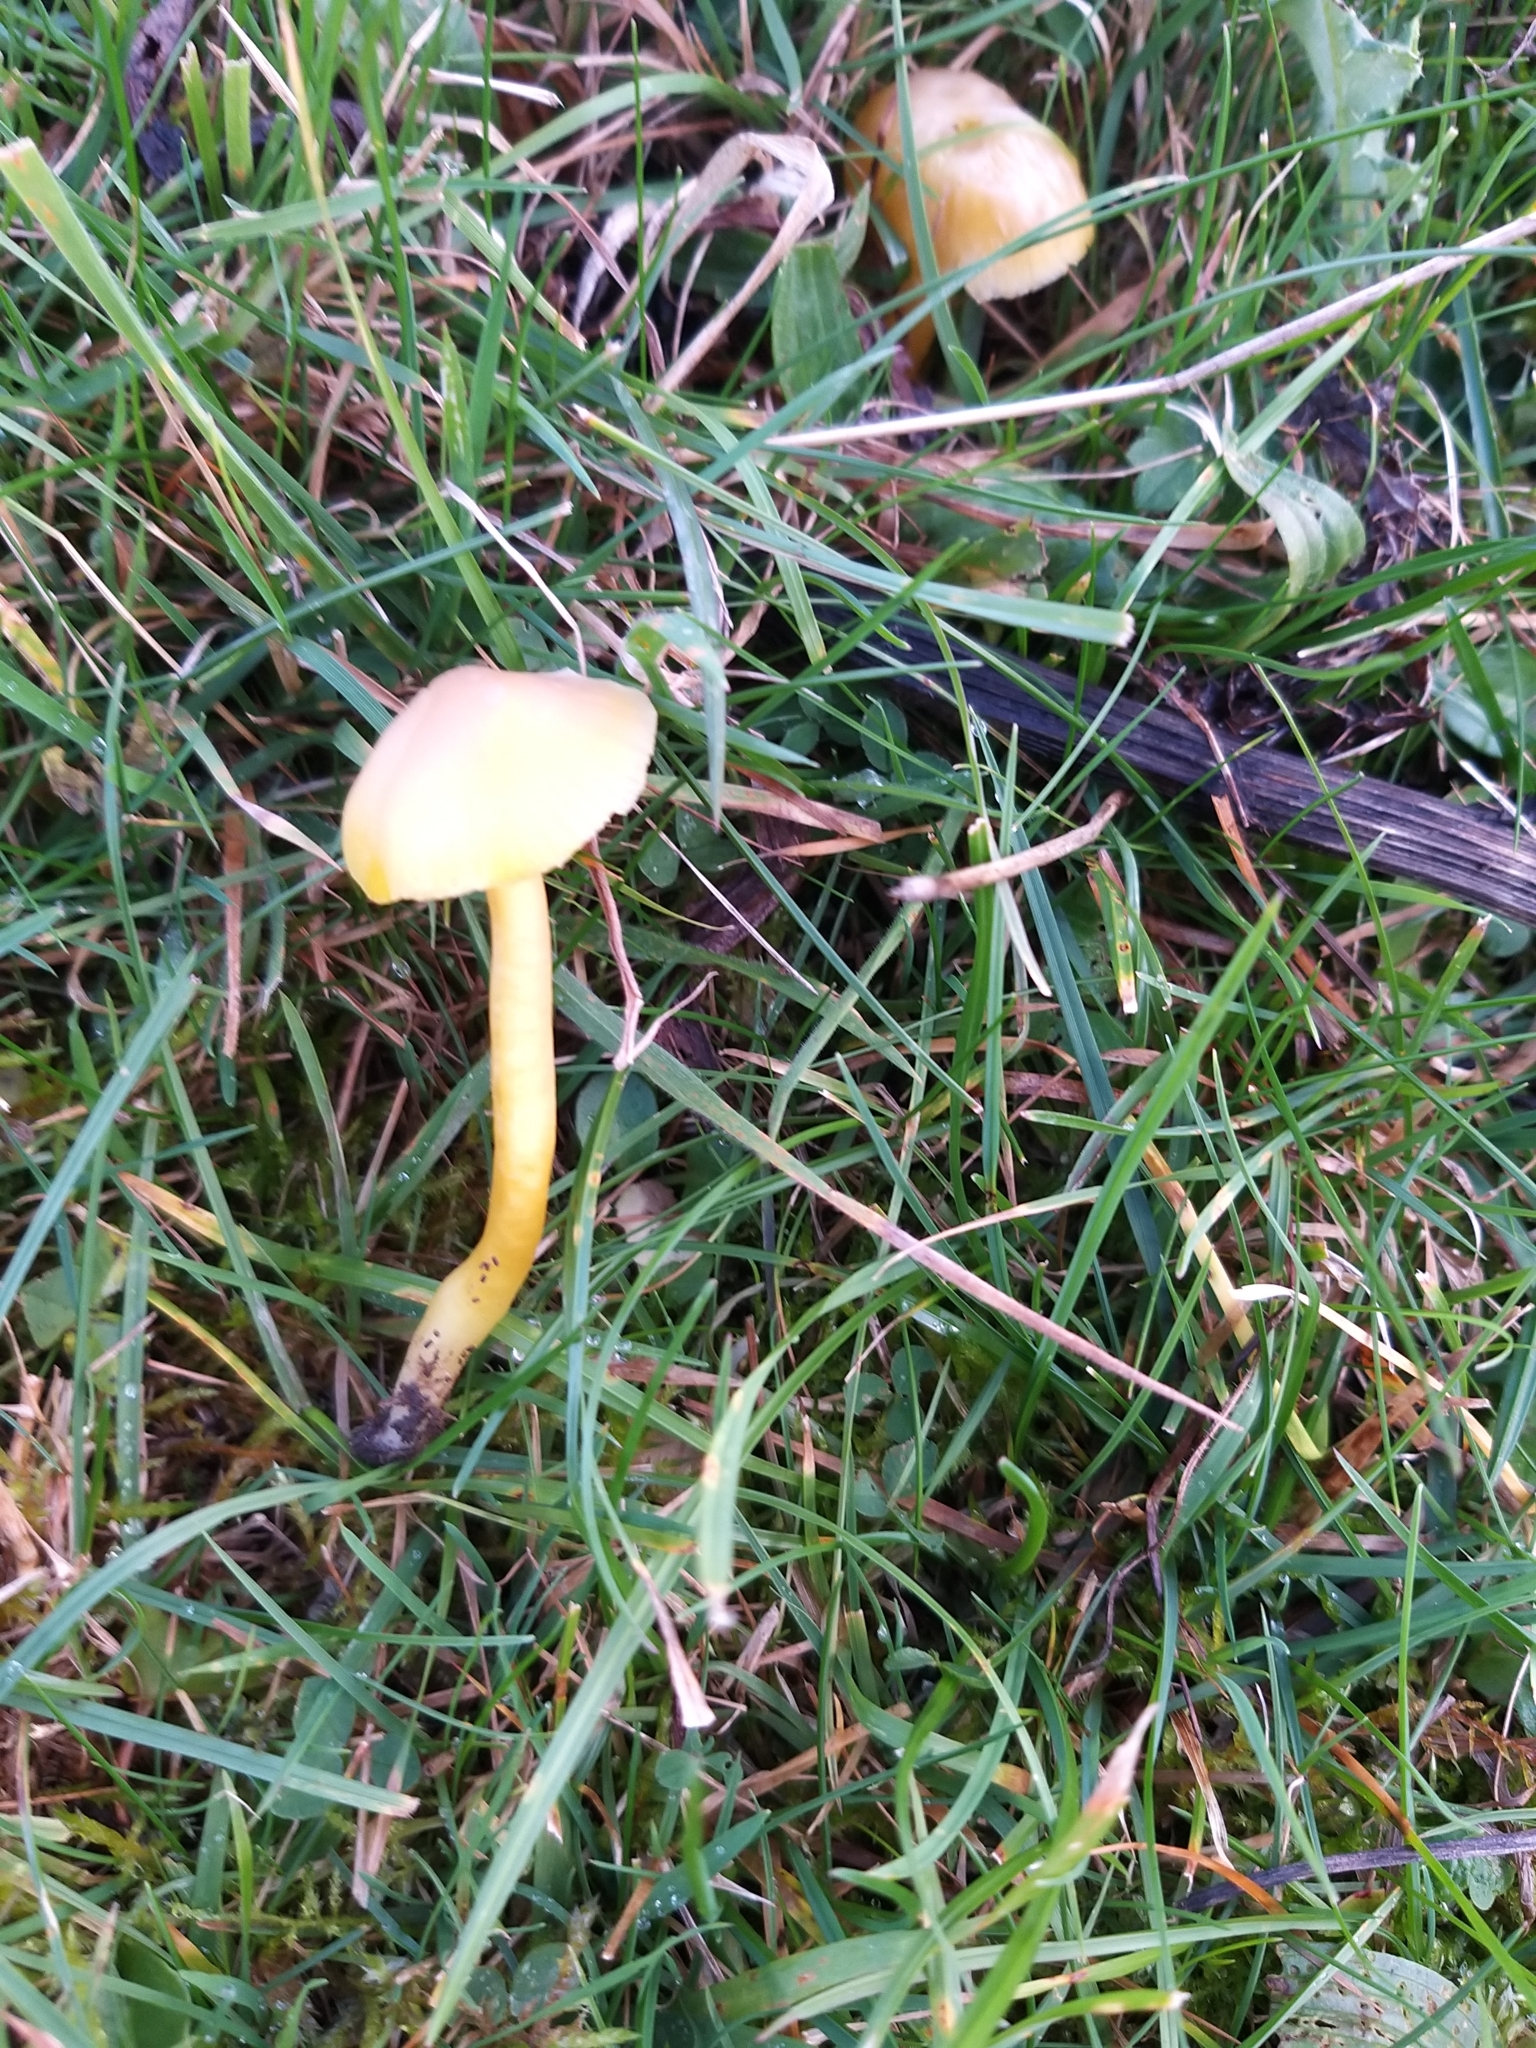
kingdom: Fungi
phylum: Basidiomycota
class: Agaricomycetes
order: Agaricales
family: Hygrophoraceae
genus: Hygrocybe
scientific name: Hygrocybe quieta
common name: Oily waxcap
